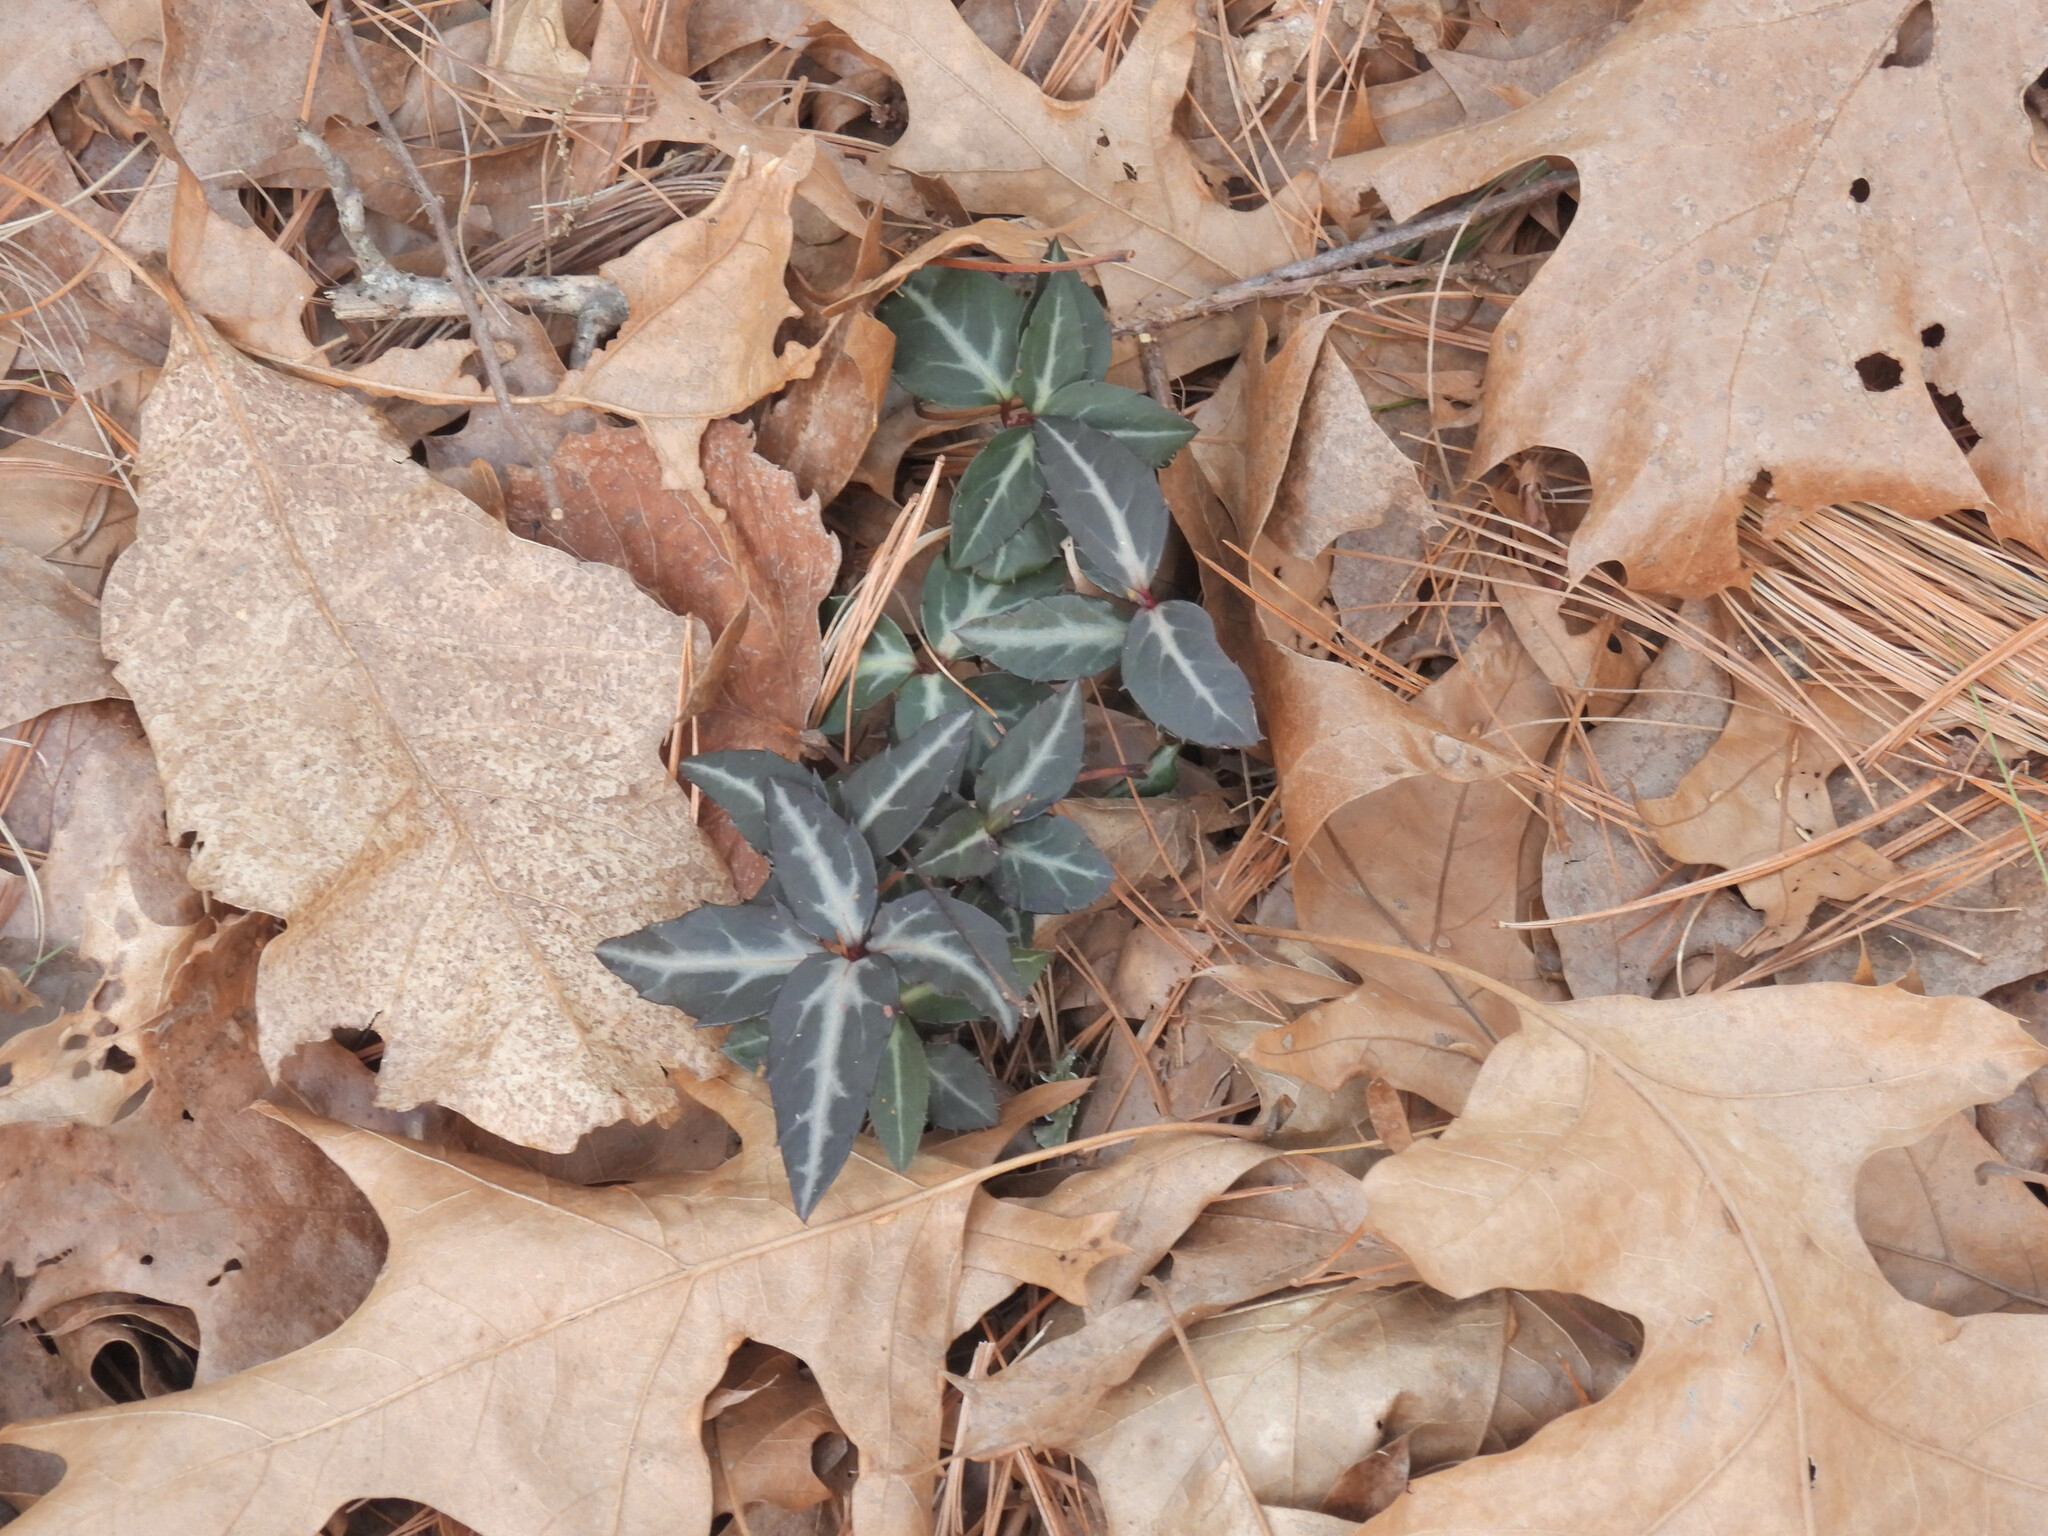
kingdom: Plantae
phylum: Tracheophyta
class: Magnoliopsida
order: Ericales
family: Ericaceae
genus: Chimaphila
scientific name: Chimaphila maculata
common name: Spotted pipsissewa
